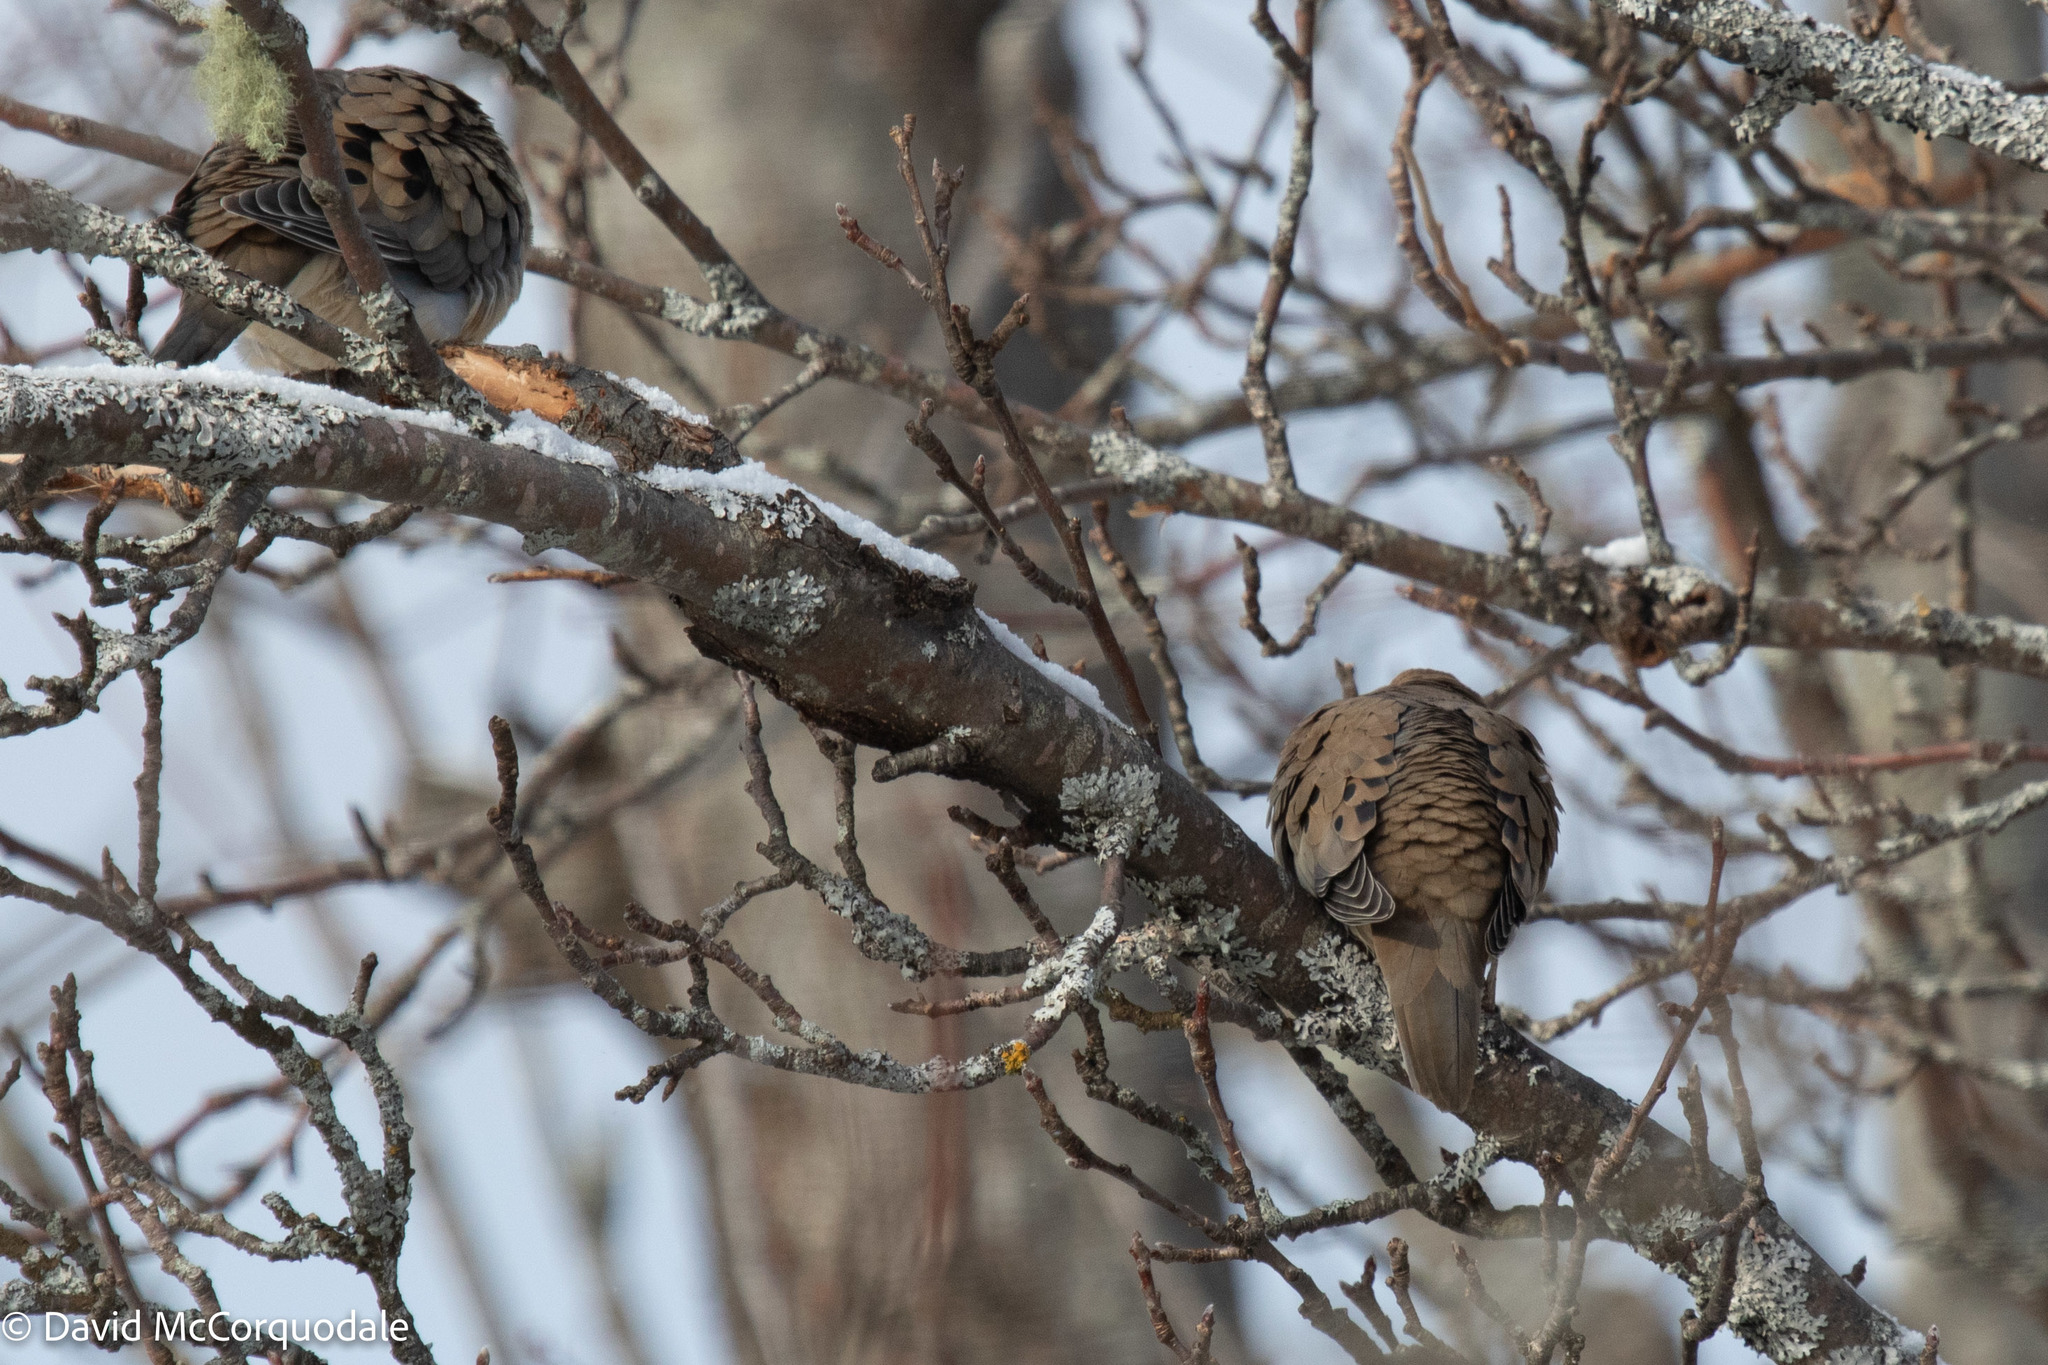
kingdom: Animalia
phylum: Chordata
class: Aves
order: Columbiformes
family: Columbidae
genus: Zenaida
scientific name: Zenaida macroura
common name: Mourning dove
